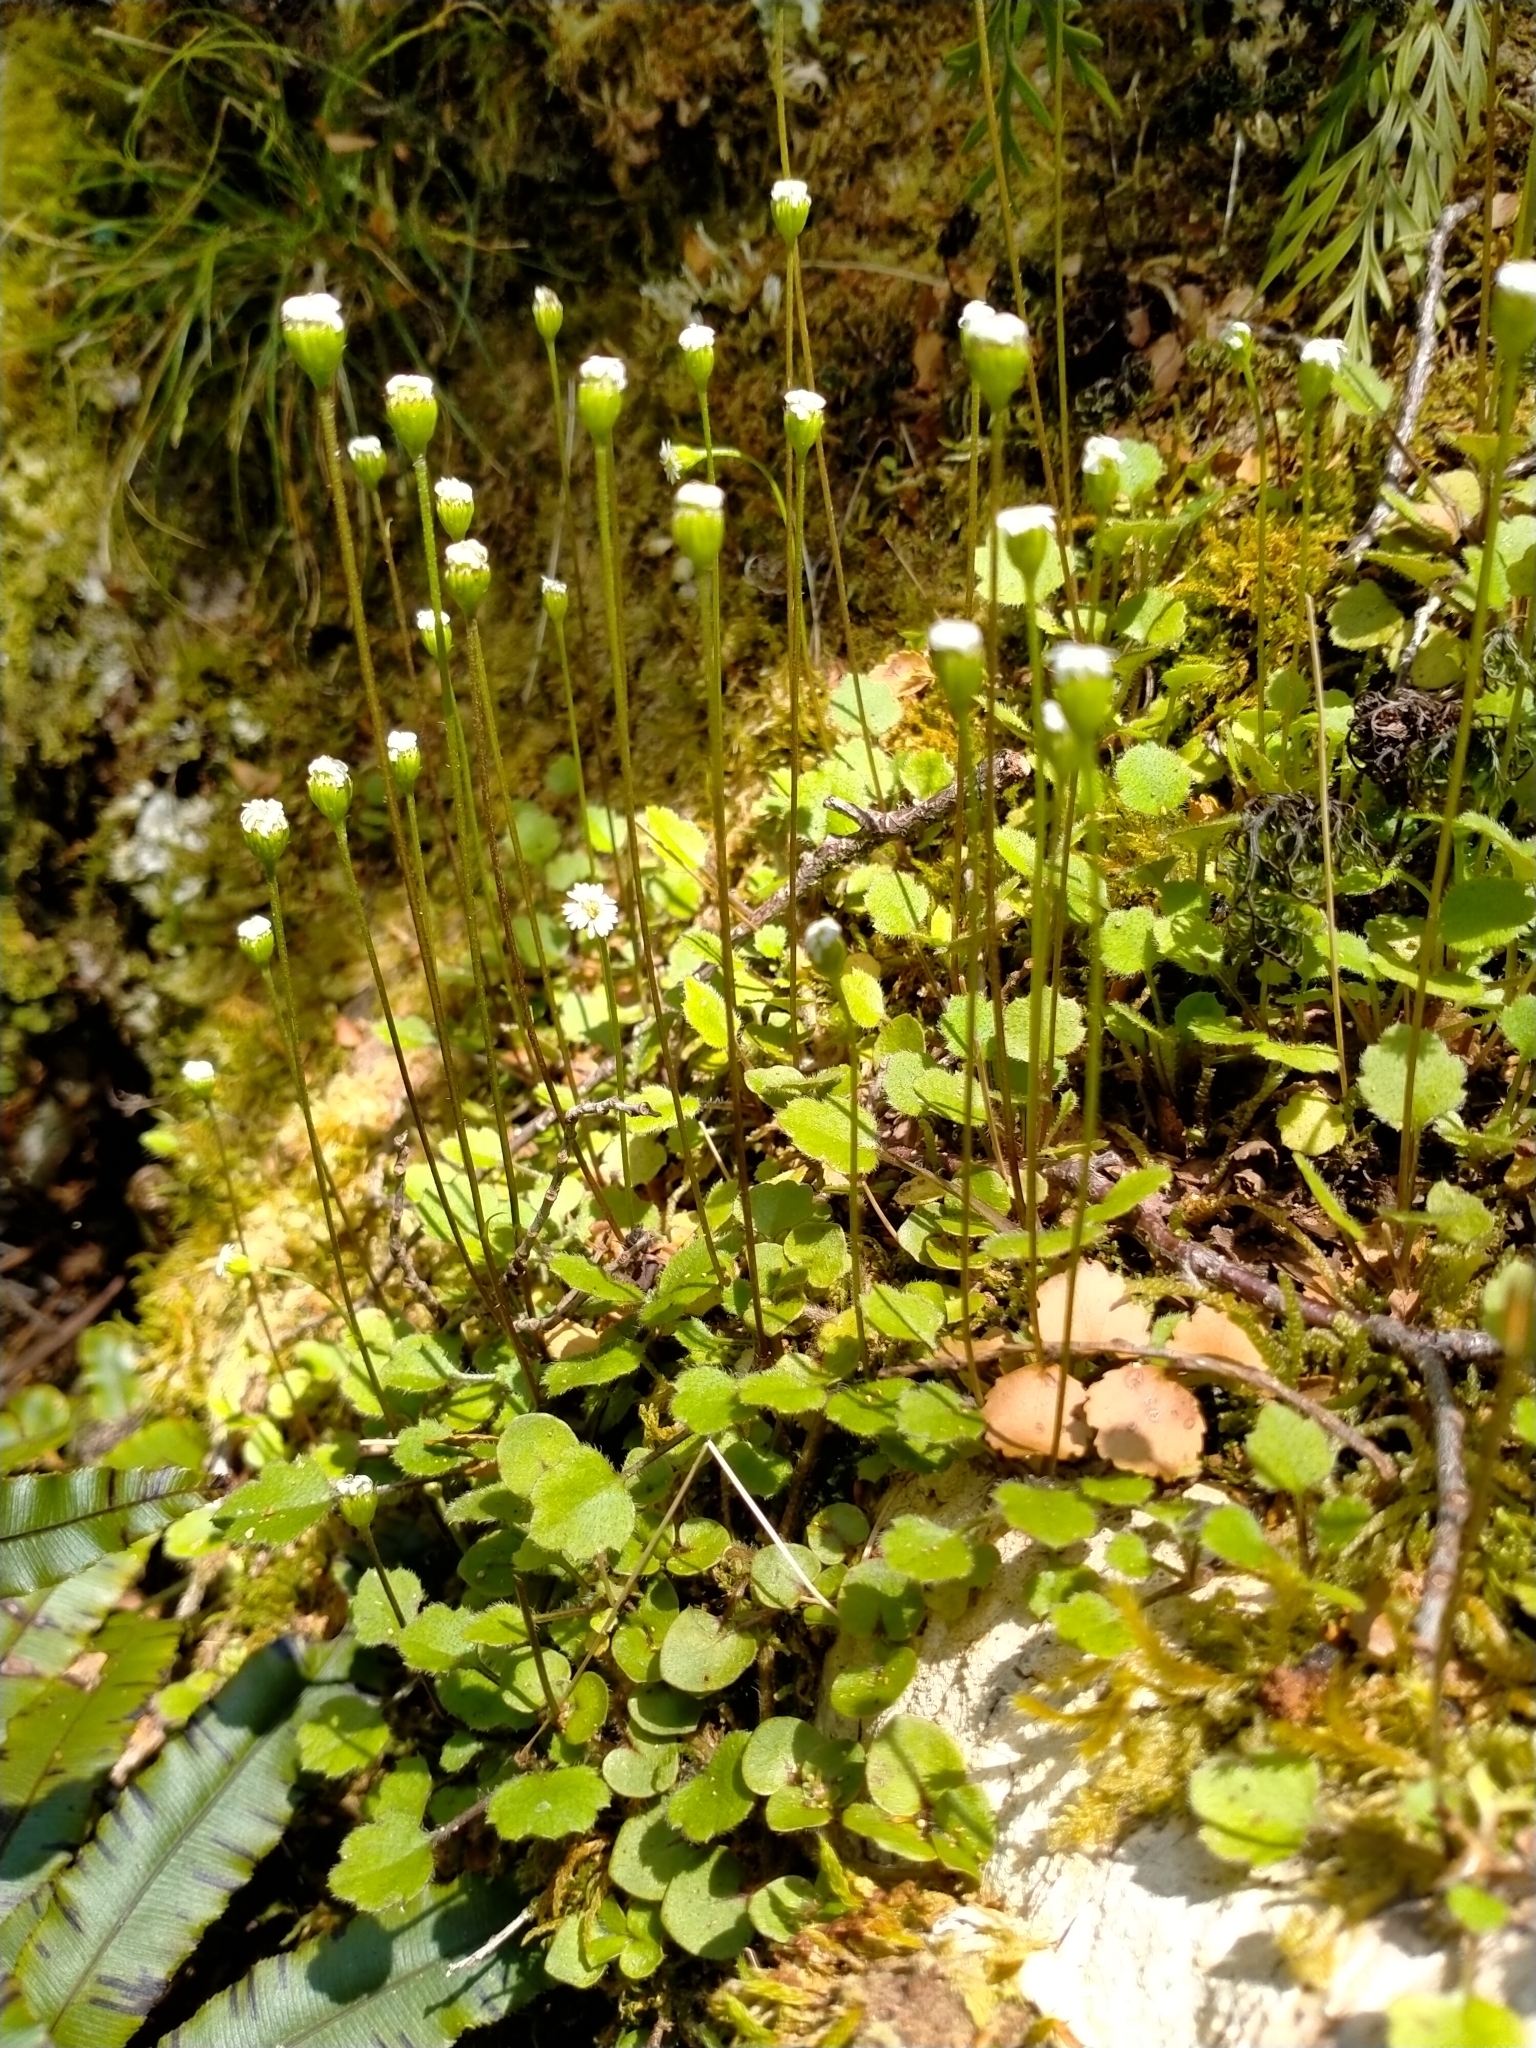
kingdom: Plantae
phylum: Tracheophyta
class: Magnoliopsida
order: Asterales
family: Asteraceae
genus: Lagenophora
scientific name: Lagenophora strangulata
